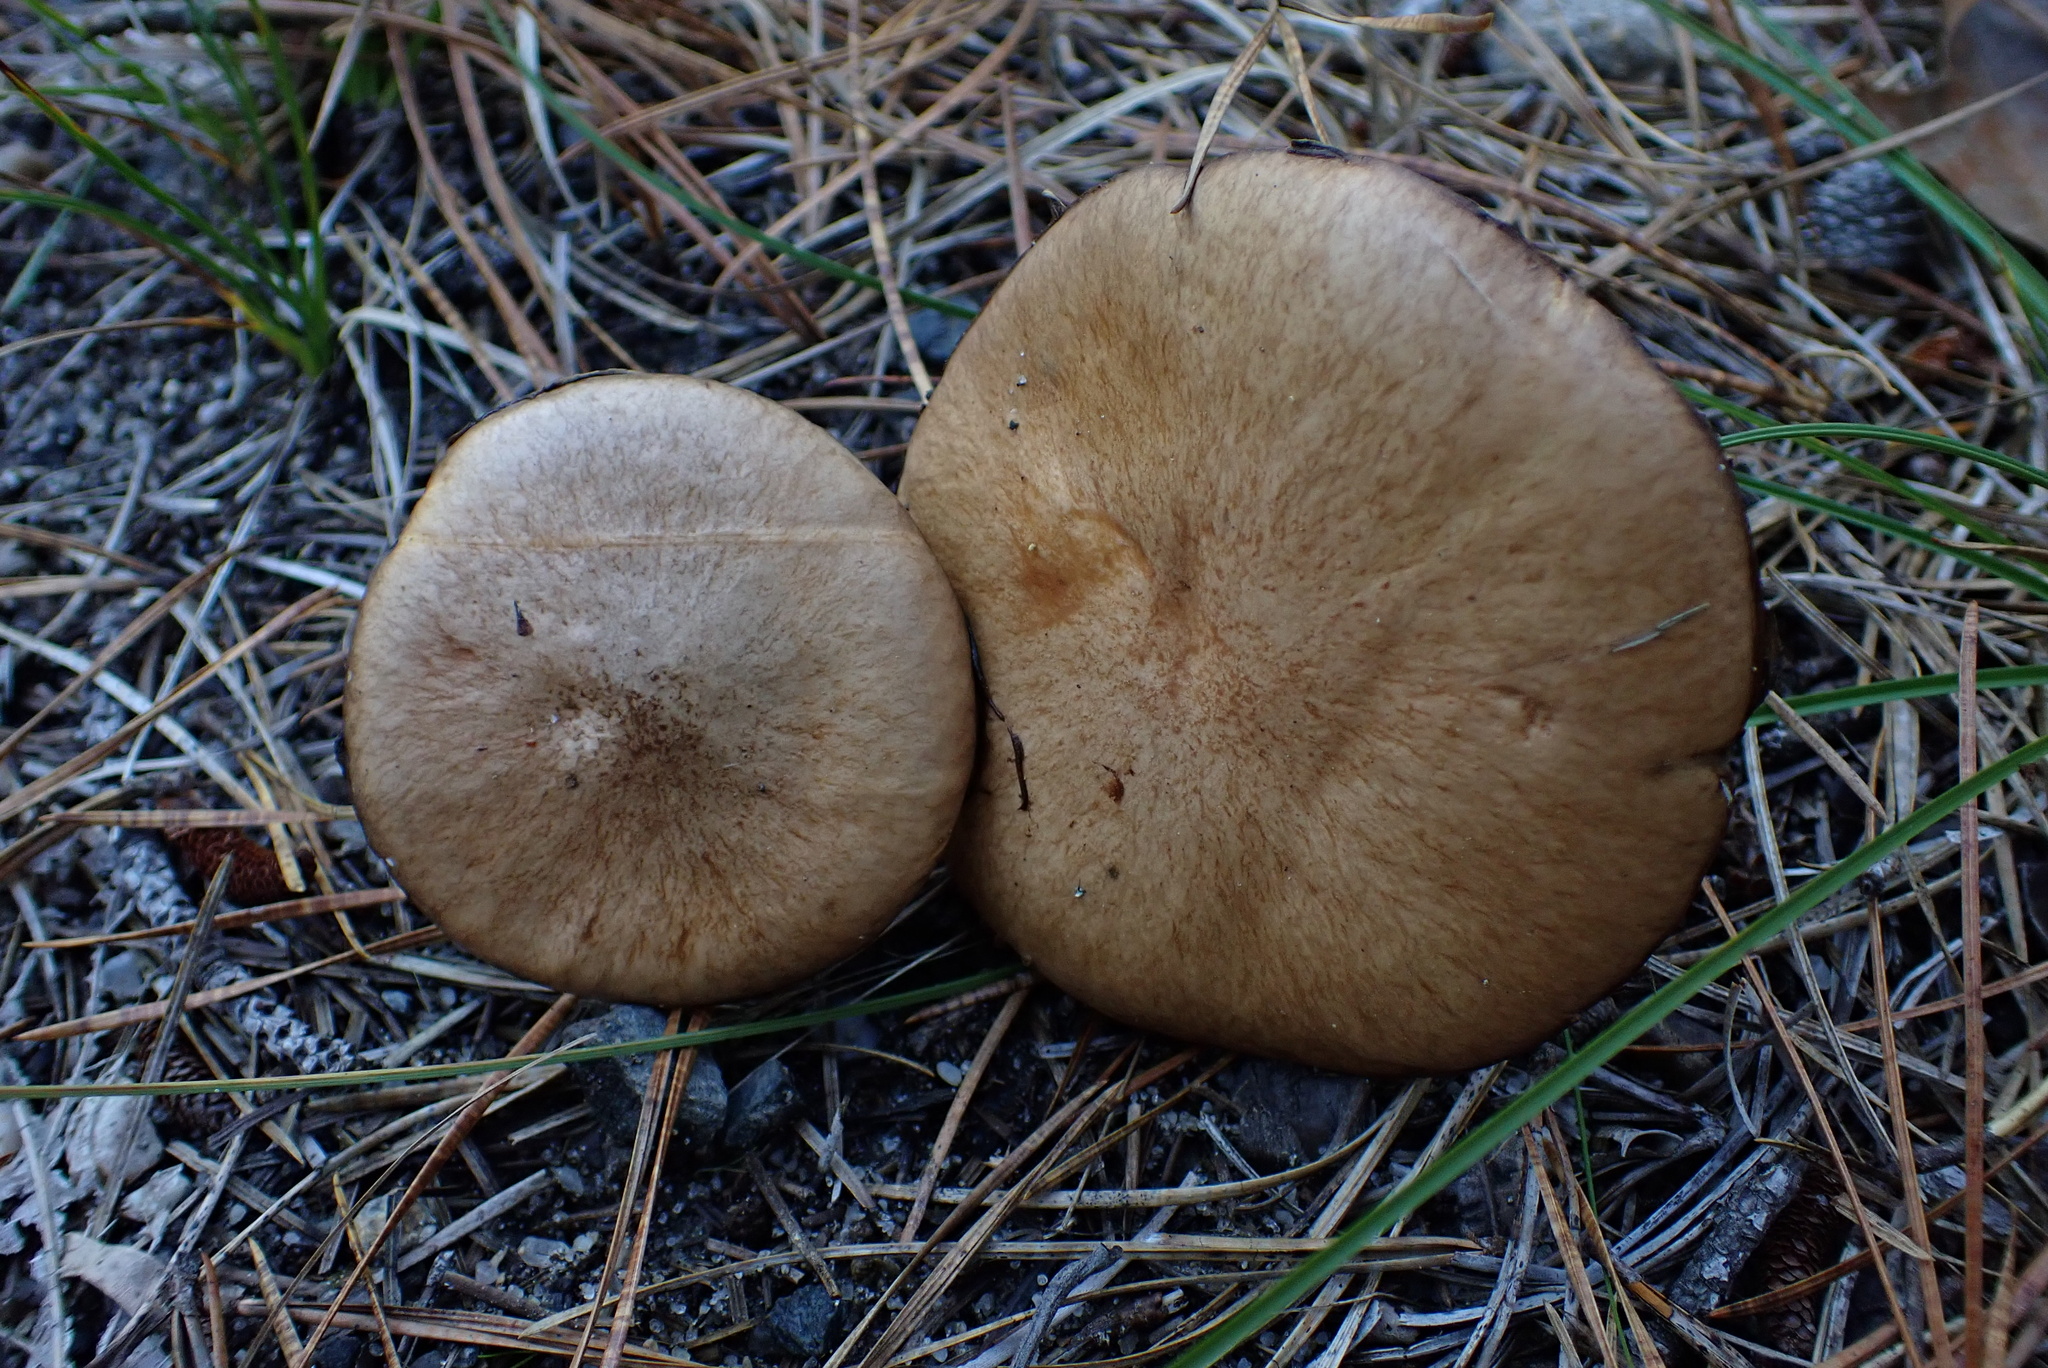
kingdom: Fungi
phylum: Basidiomycota
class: Agaricomycetes
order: Boletales
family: Suillaceae
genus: Suillus
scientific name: Suillus salmonicolor
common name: Slippery jill
